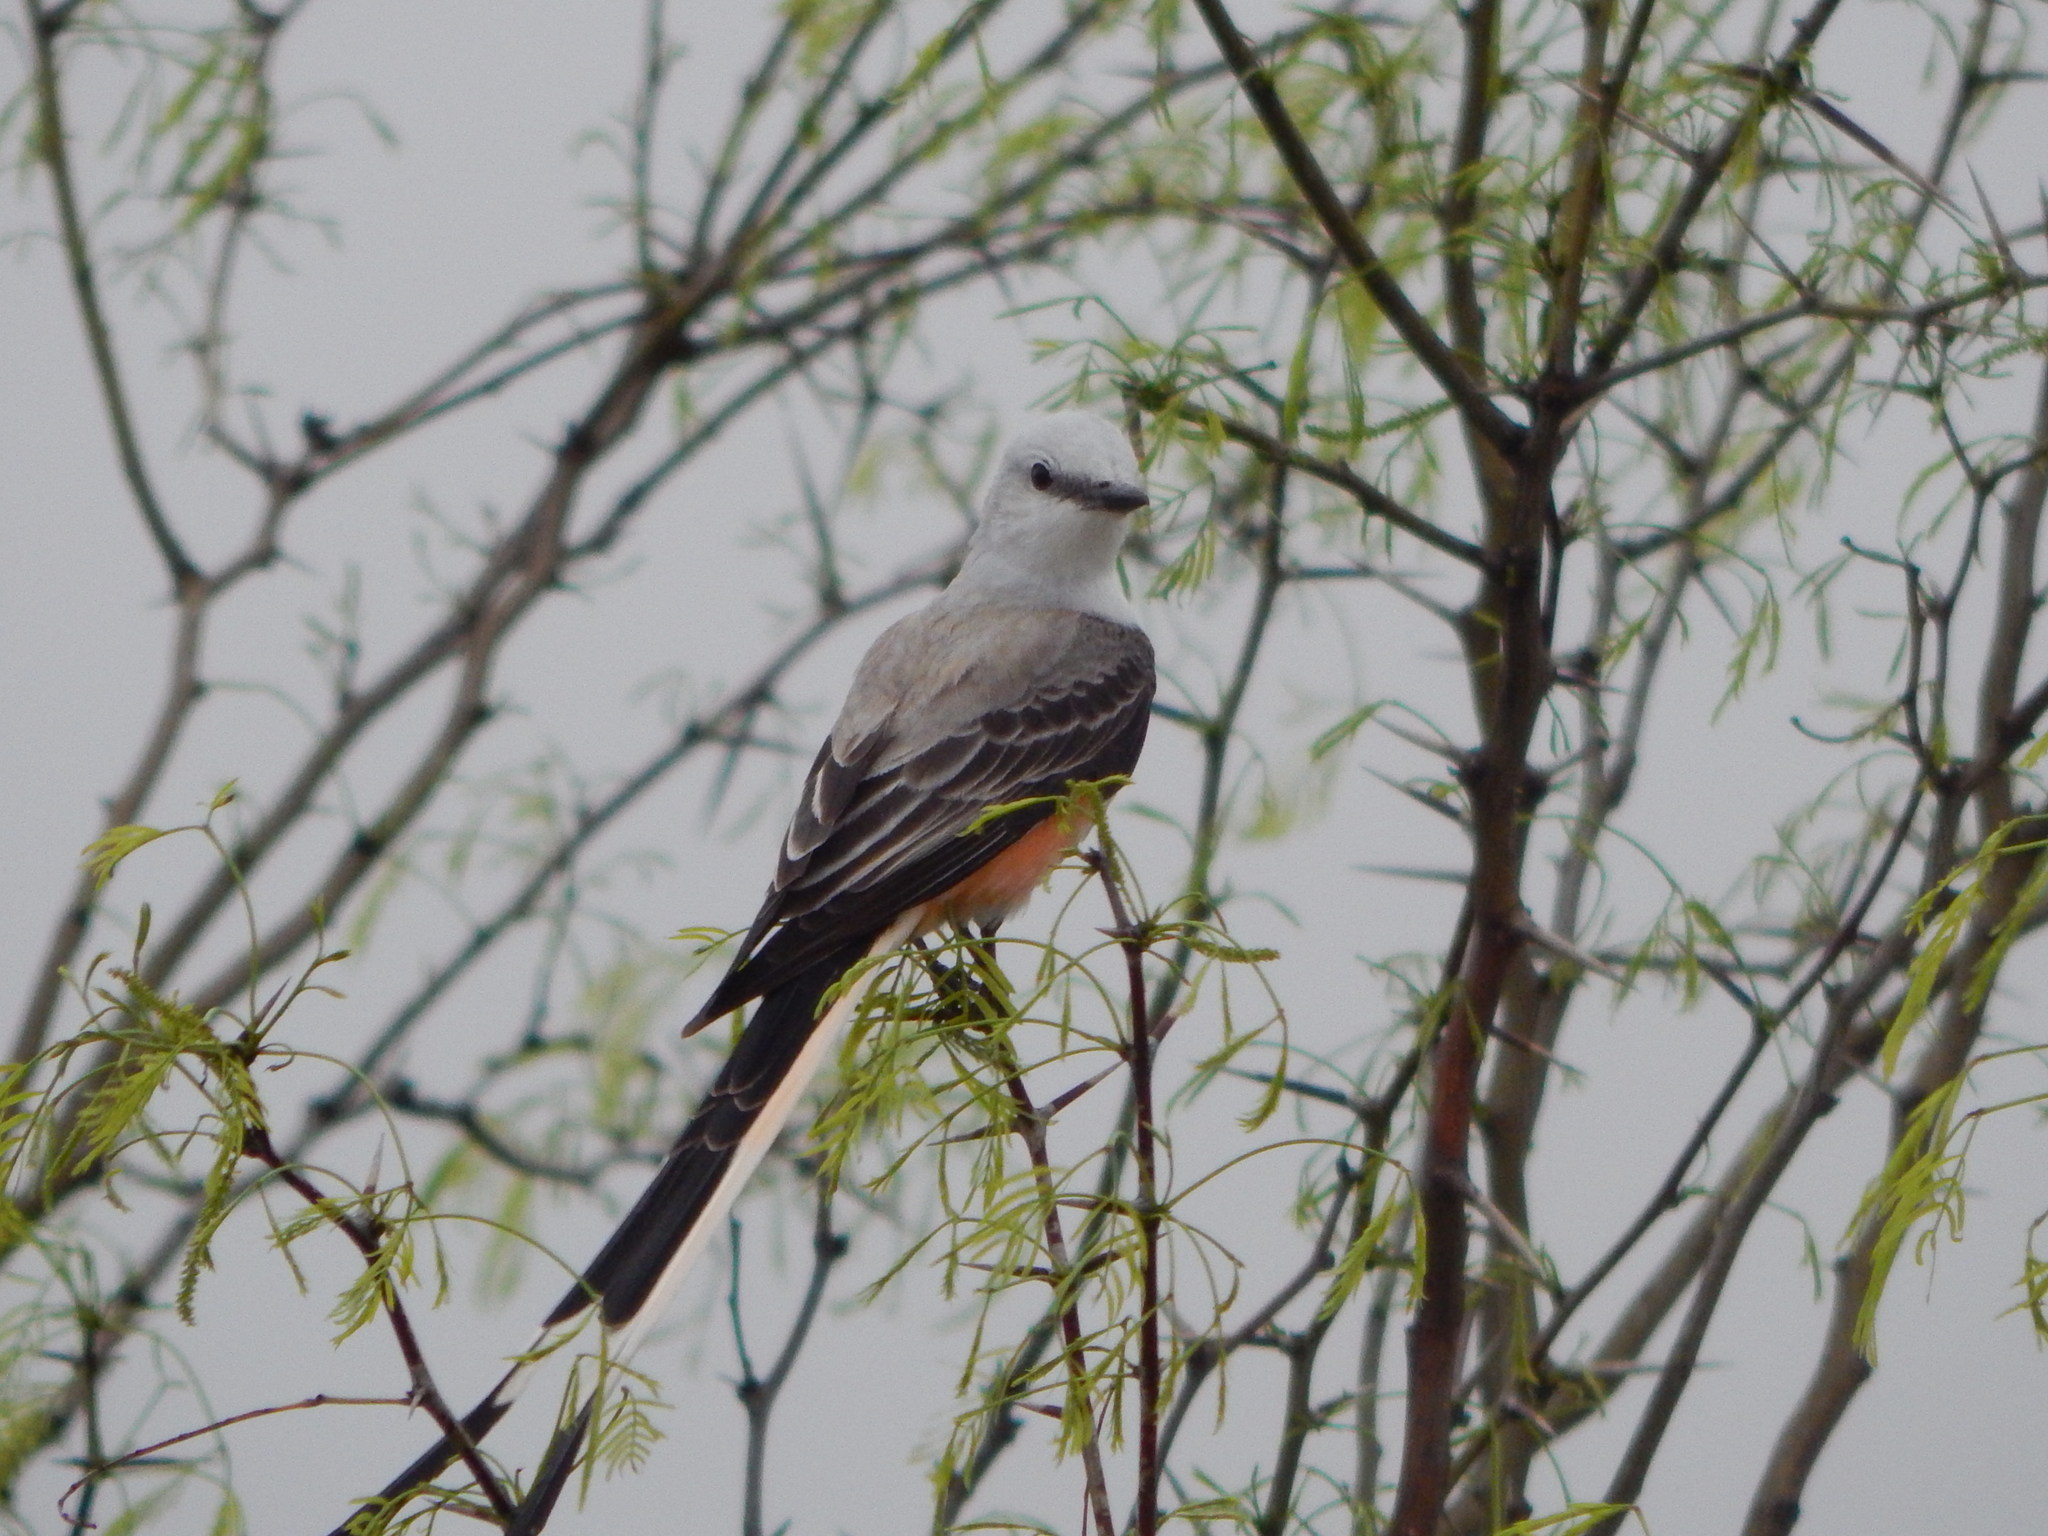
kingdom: Animalia
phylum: Chordata
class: Aves
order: Passeriformes
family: Tyrannidae
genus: Tyrannus
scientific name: Tyrannus forficatus
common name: Scissor-tailed flycatcher
